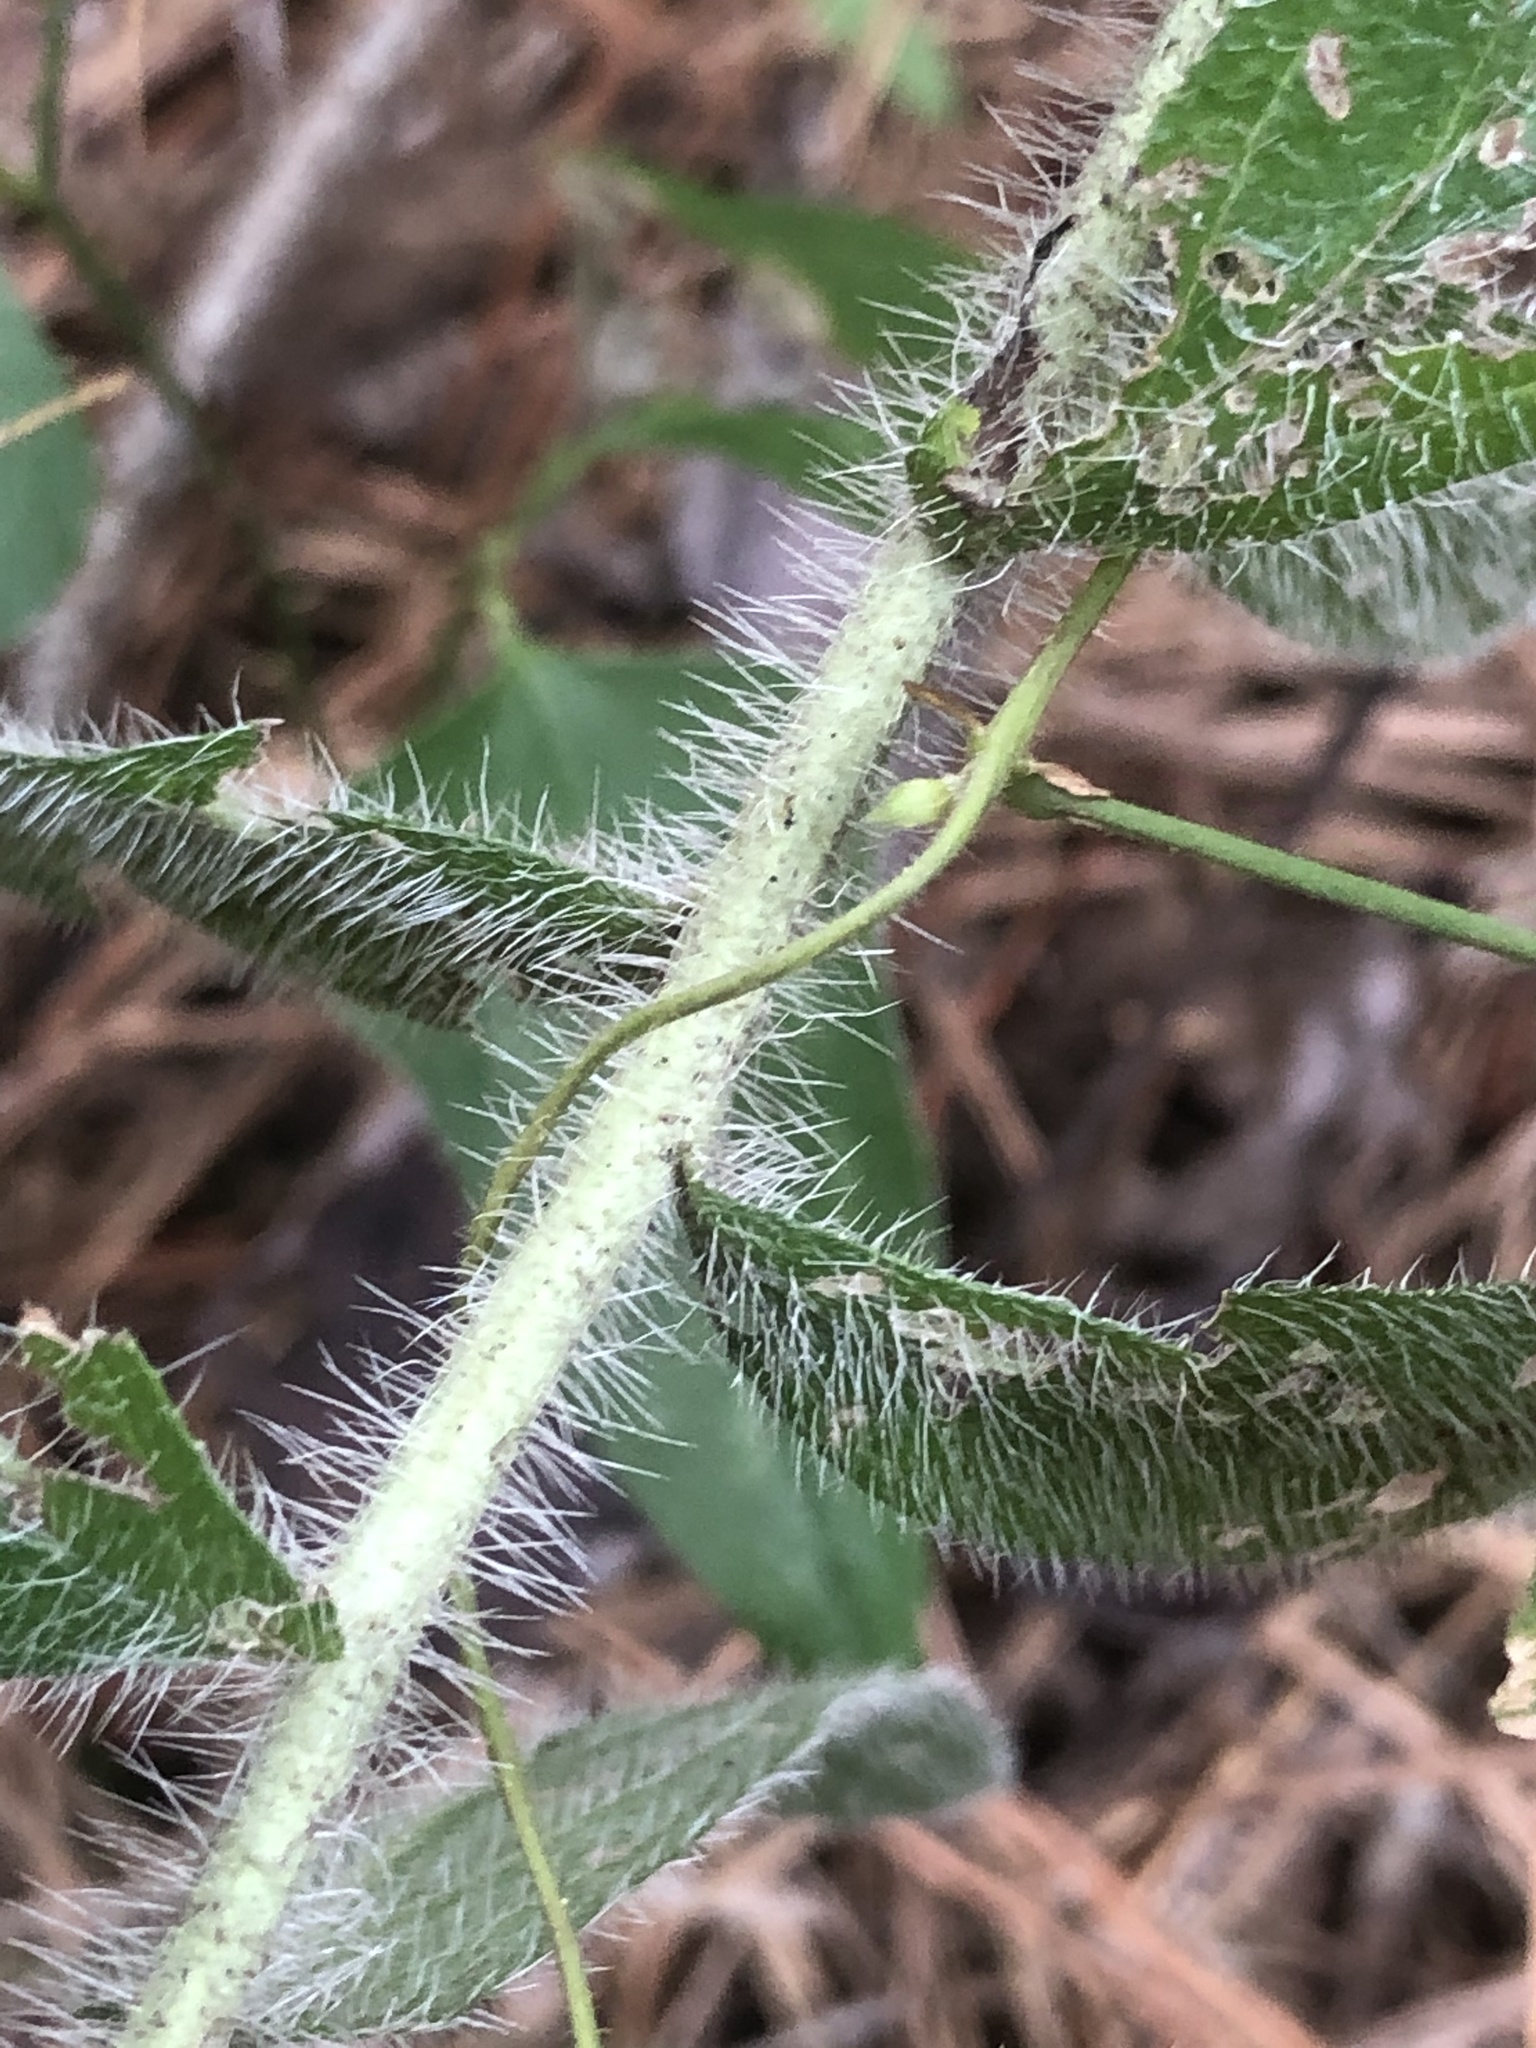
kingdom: Plantae
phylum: Tracheophyta
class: Magnoliopsida
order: Boraginales
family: Boraginaceae
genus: Lithospermum
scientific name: Lithospermum caroliniense
